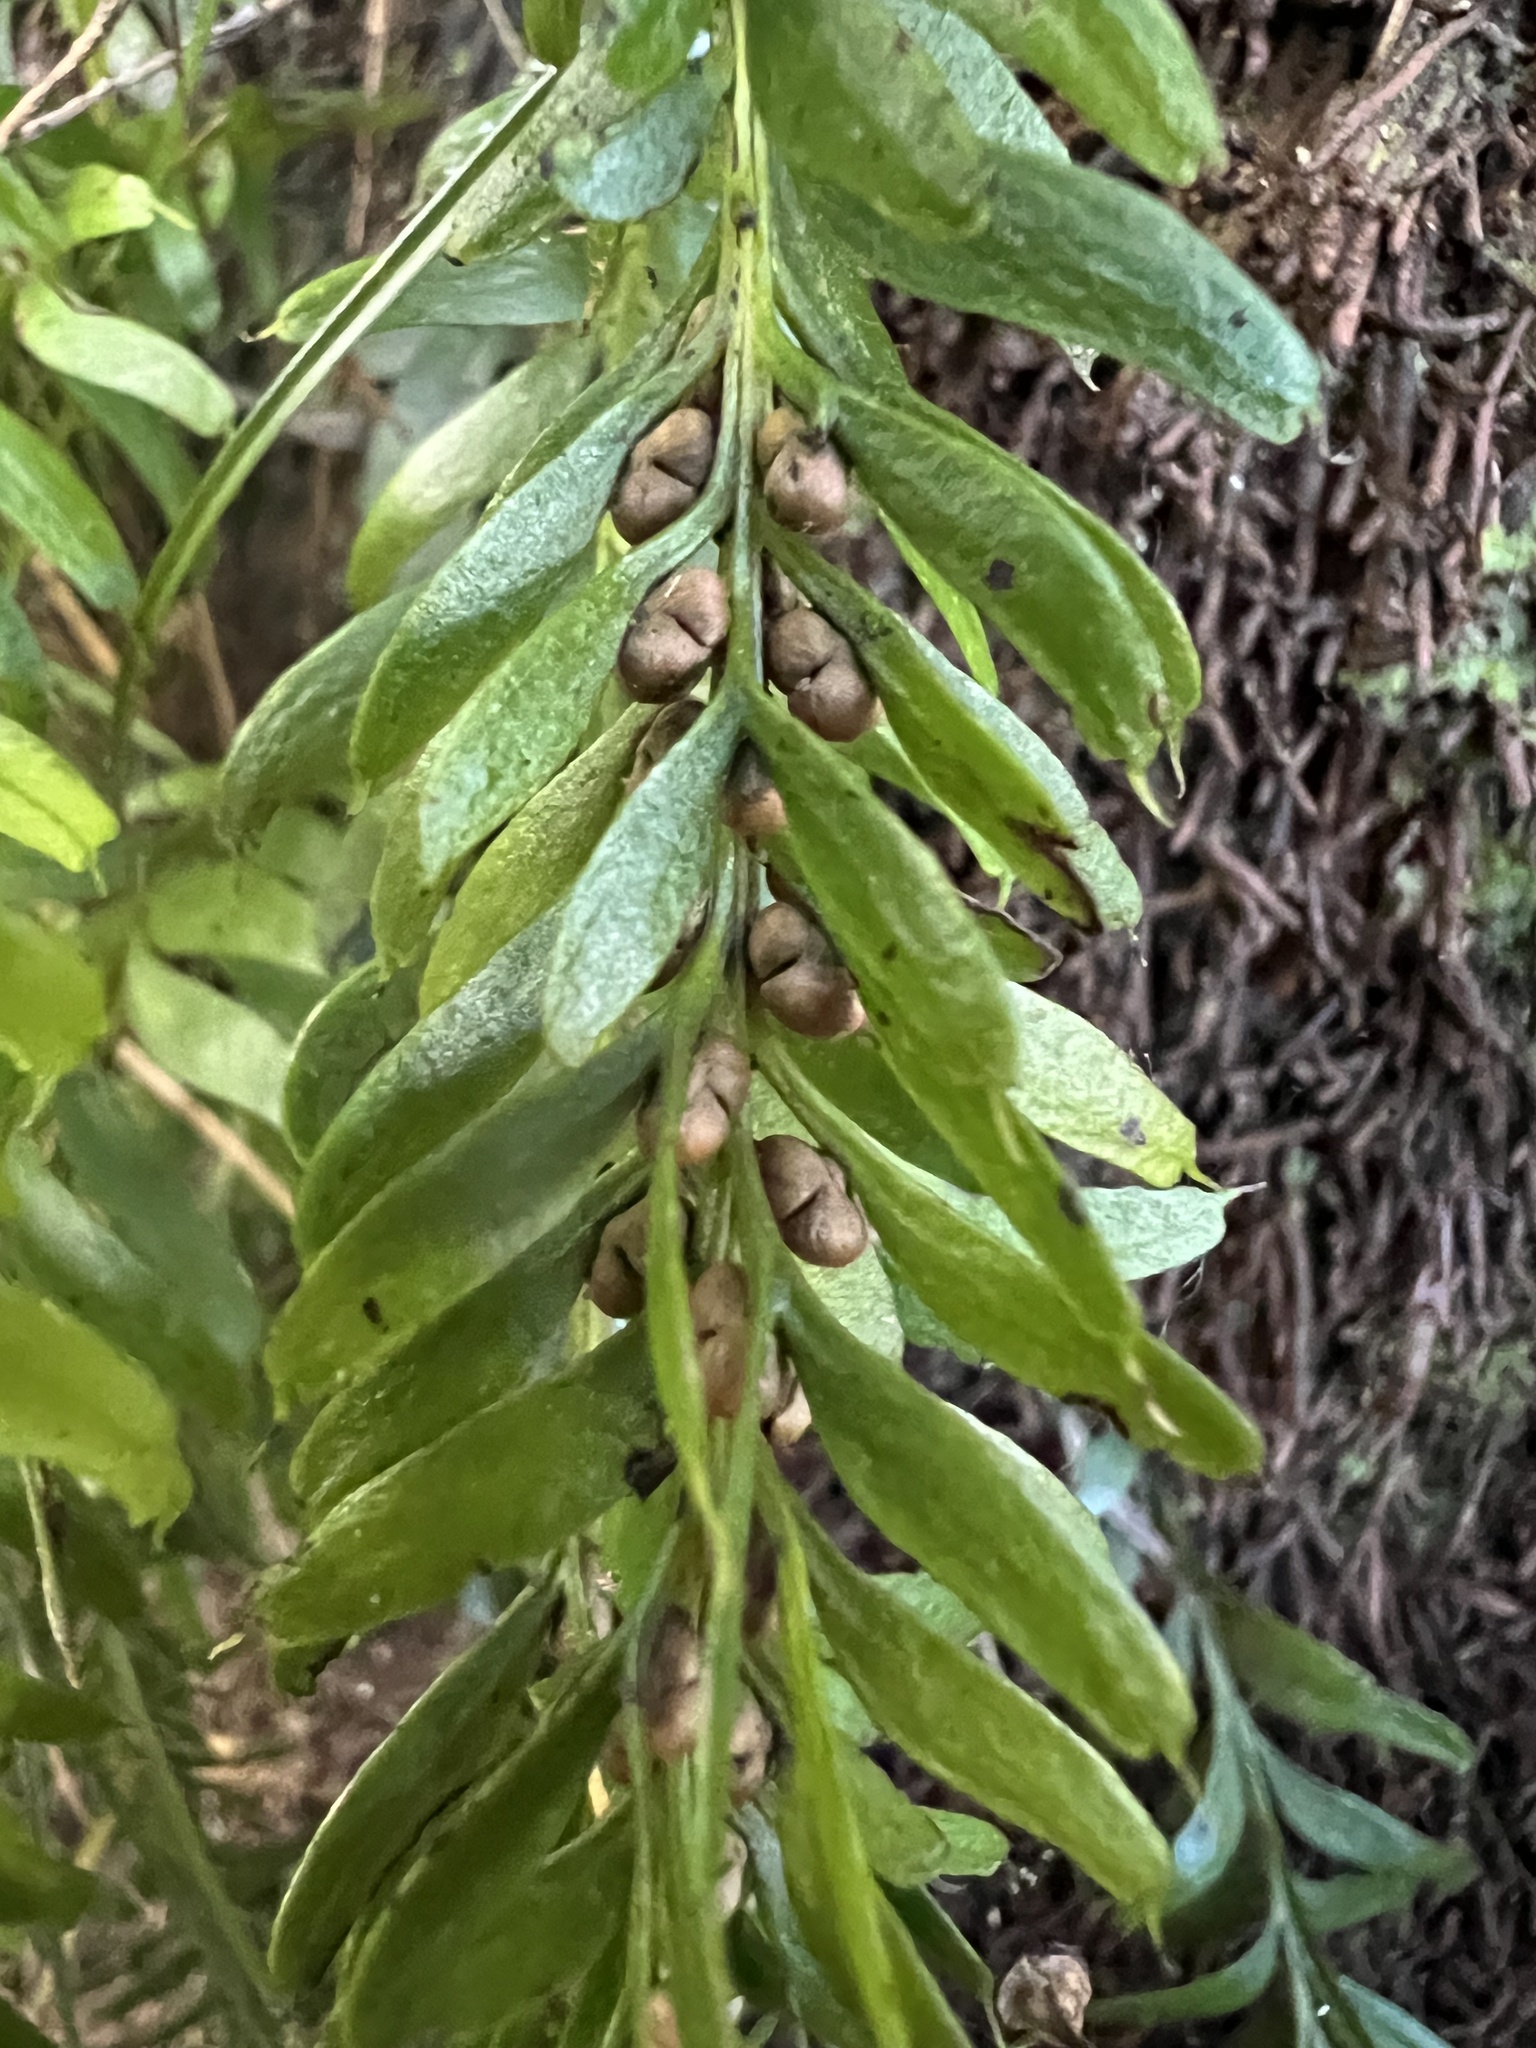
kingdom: Plantae
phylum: Tracheophyta
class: Polypodiopsida
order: Psilotales
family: Psilotaceae
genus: Tmesipteris
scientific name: Tmesipteris sigmatifolia
